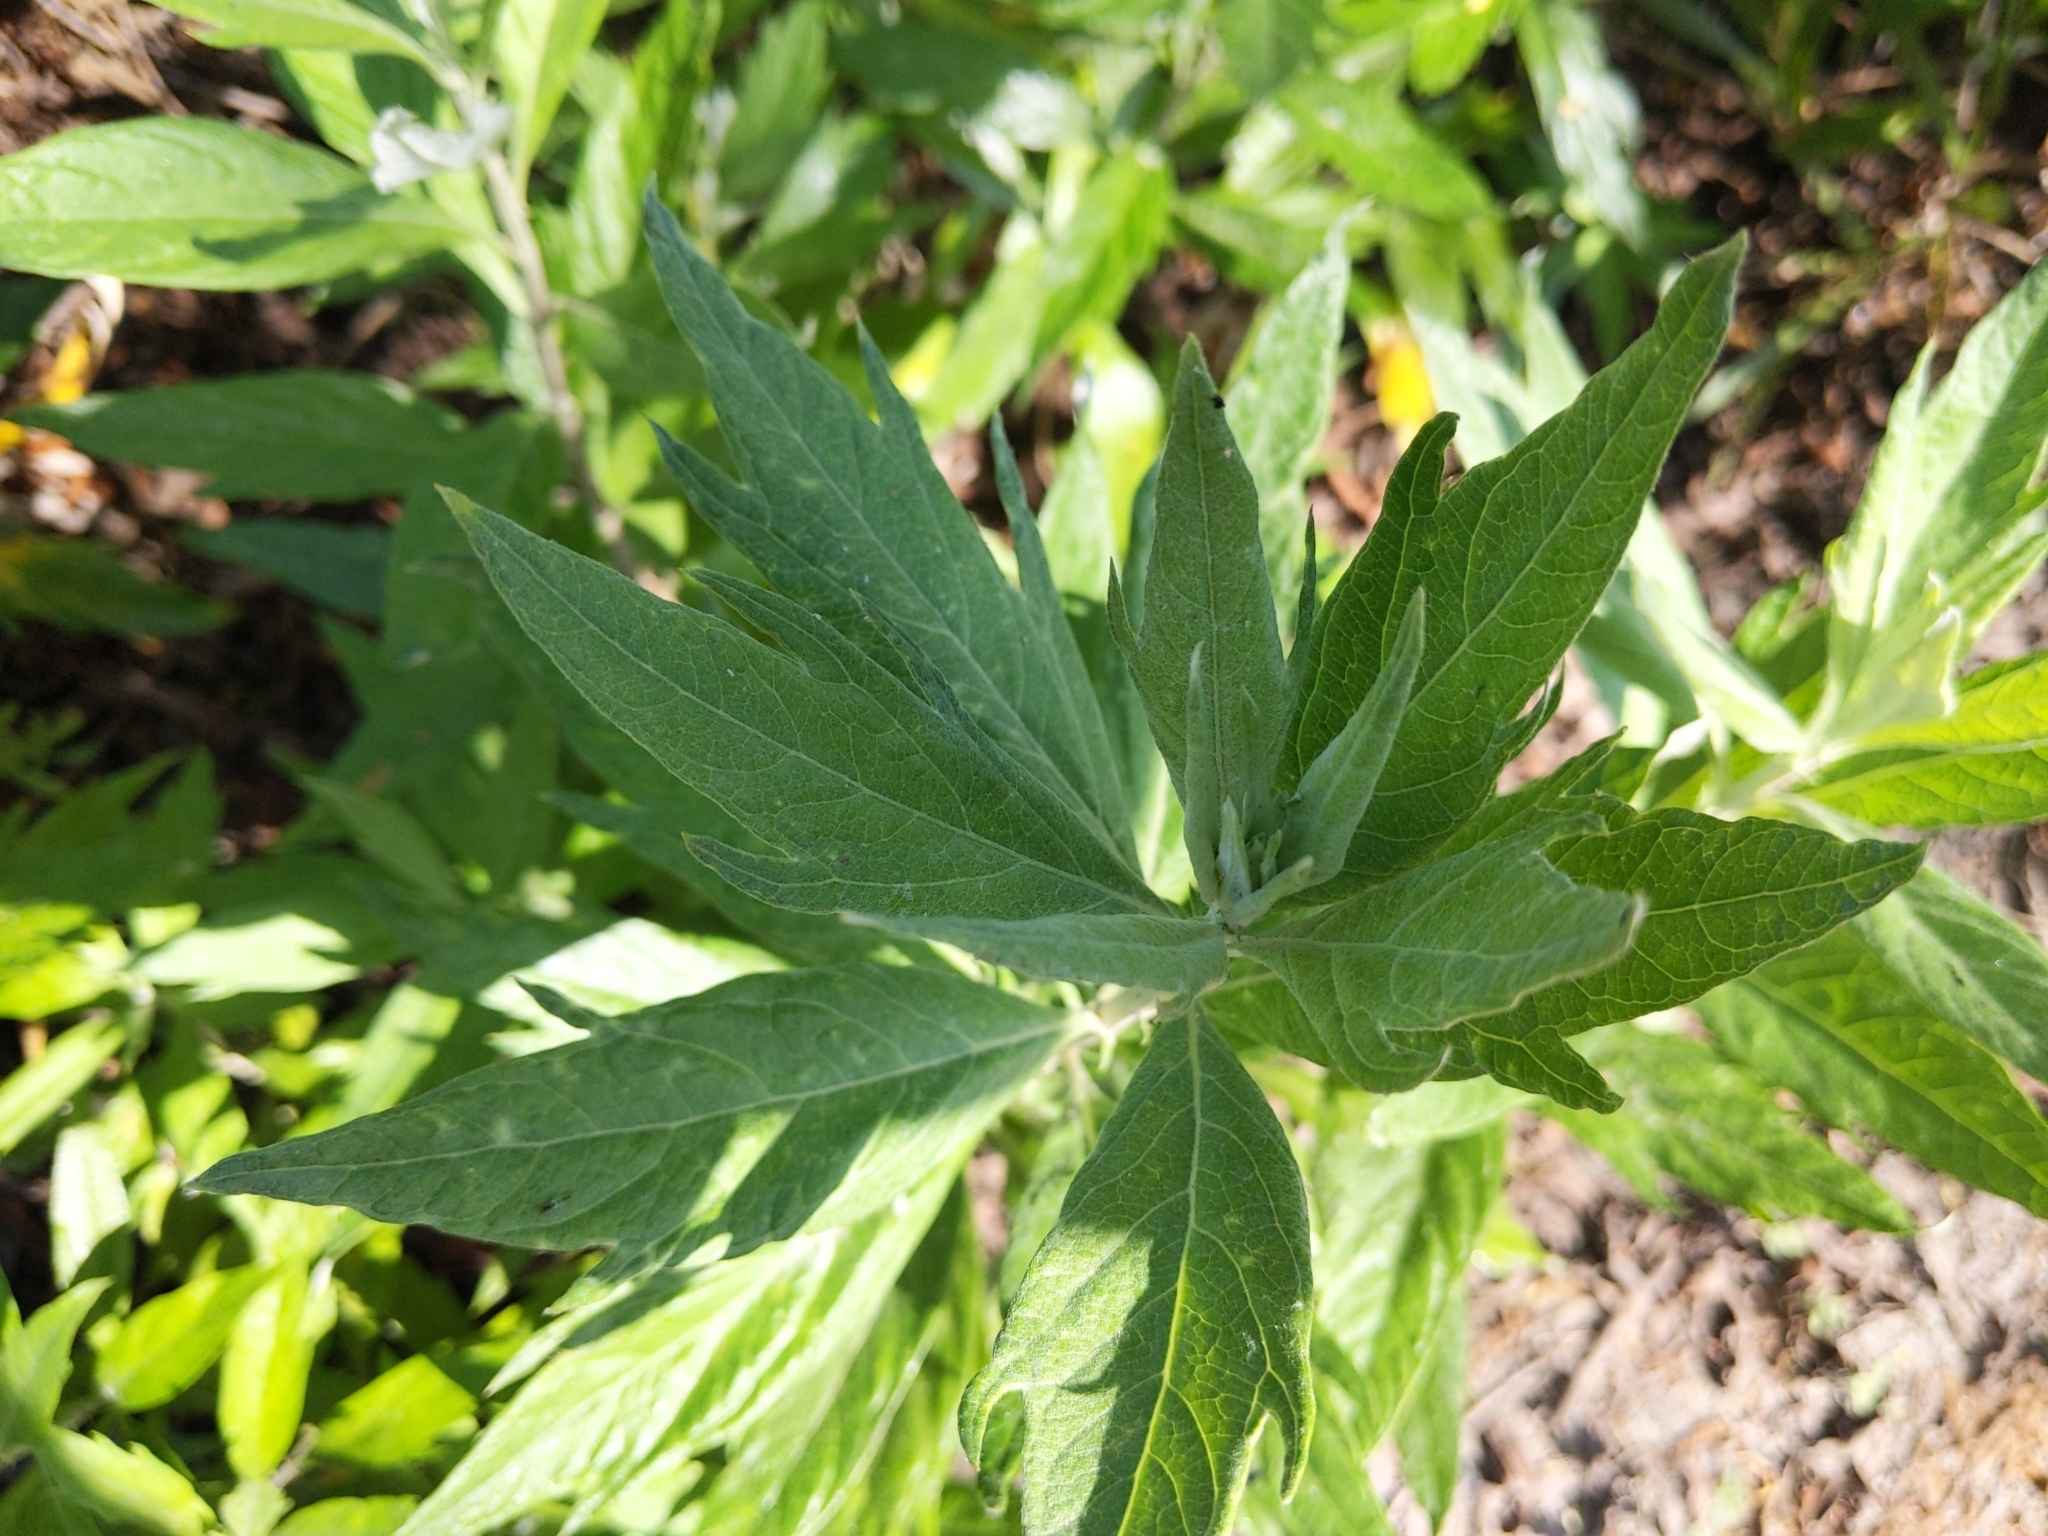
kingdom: Plantae
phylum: Tracheophyta
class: Magnoliopsida
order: Asterales
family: Asteraceae
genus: Artemisia
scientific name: Artemisia douglasiana
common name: Northwest mugwort
